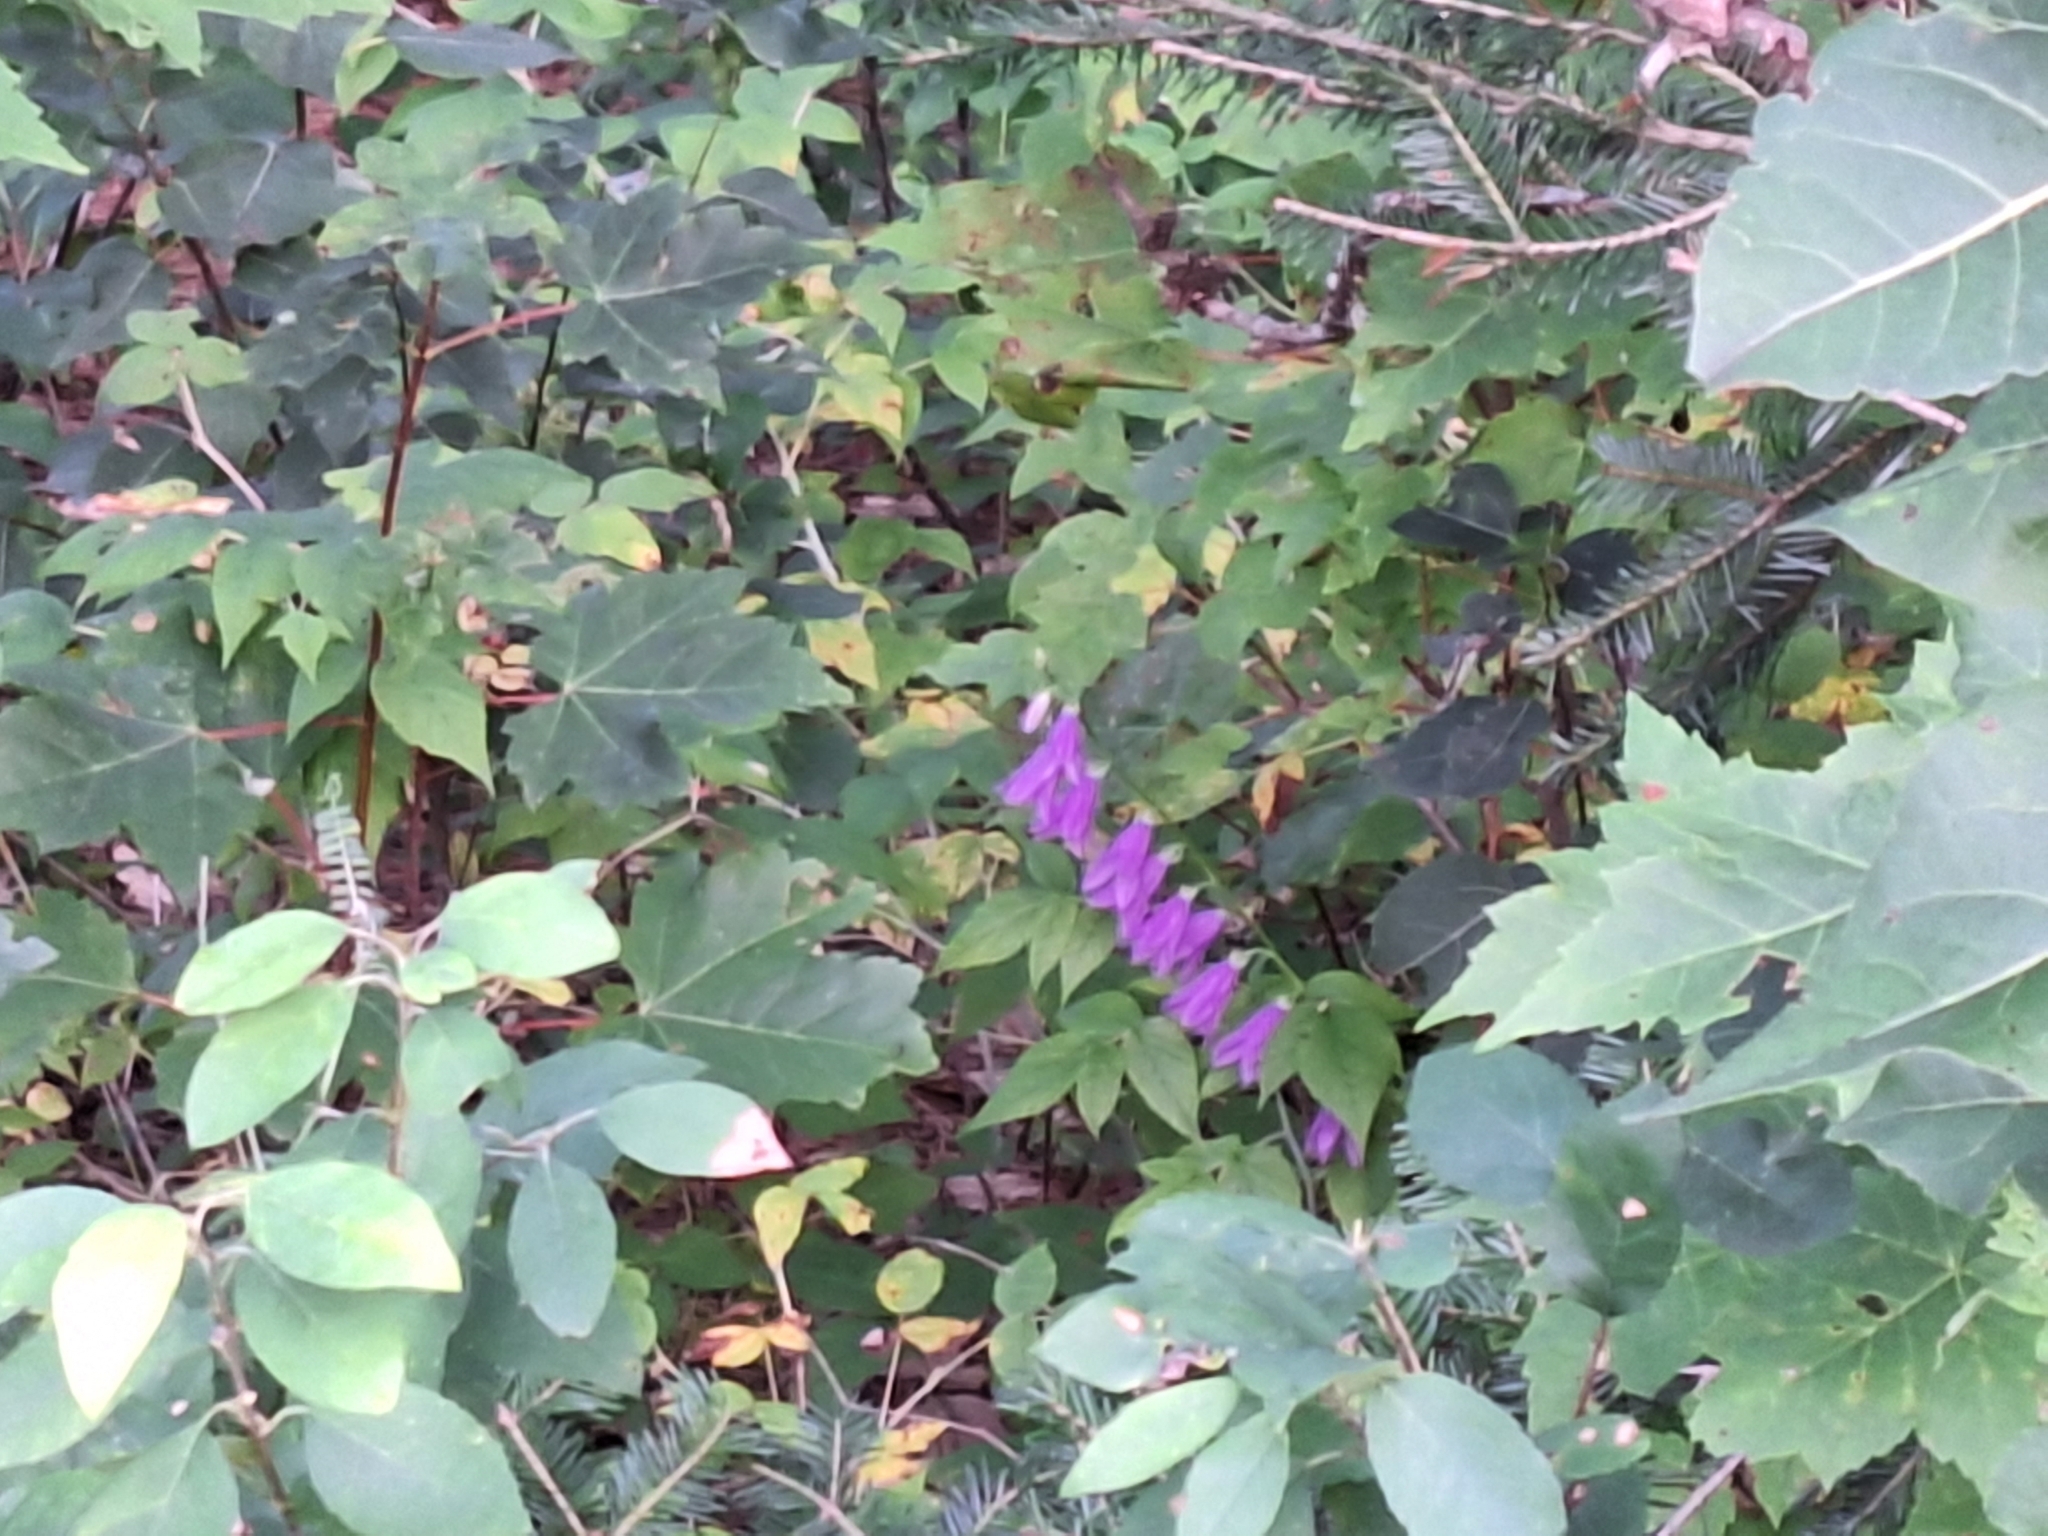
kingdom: Plantae
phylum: Tracheophyta
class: Magnoliopsida
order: Asterales
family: Campanulaceae
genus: Campanula
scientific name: Campanula rapunculoides
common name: Creeping bellflower
